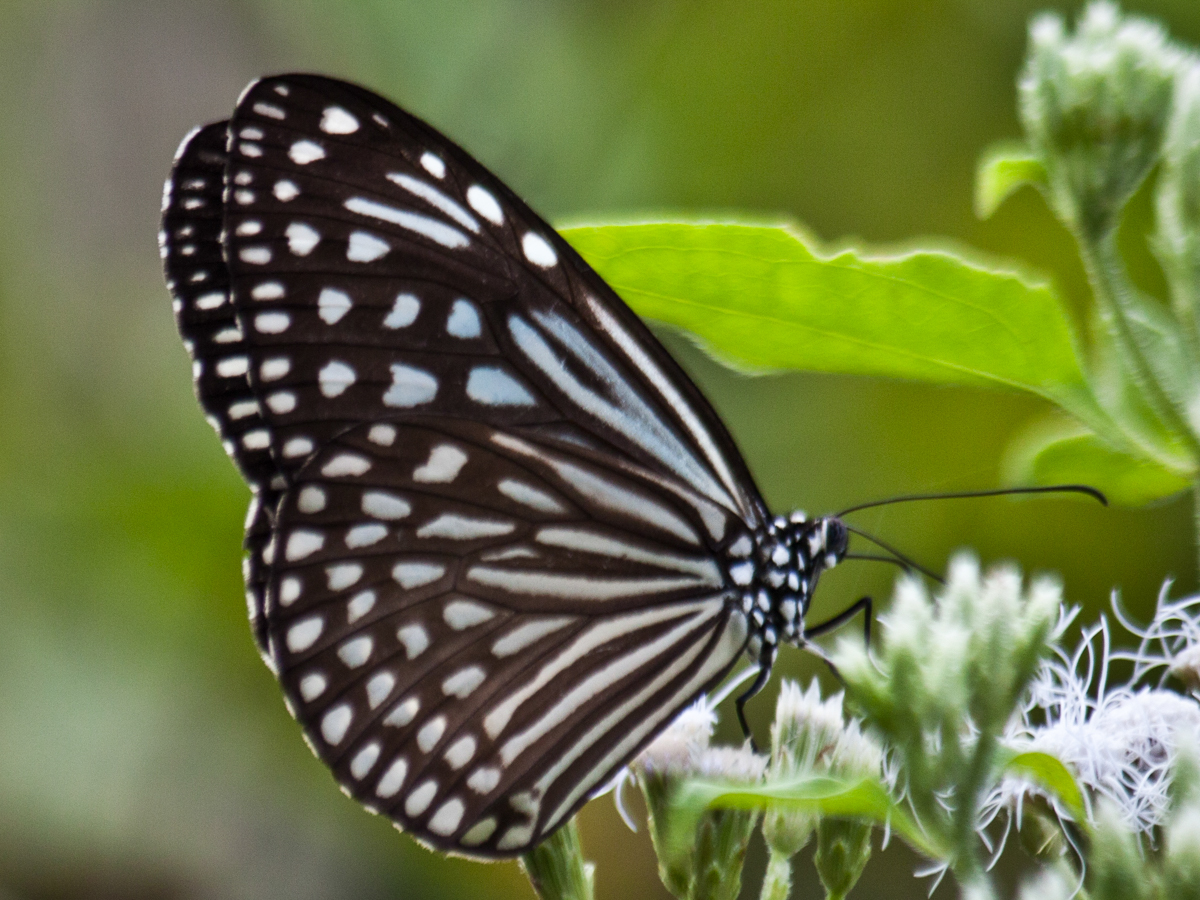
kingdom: Animalia
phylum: Arthropoda
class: Insecta
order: Lepidoptera
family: Nymphalidae
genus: Parantica
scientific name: Parantica agleoides
